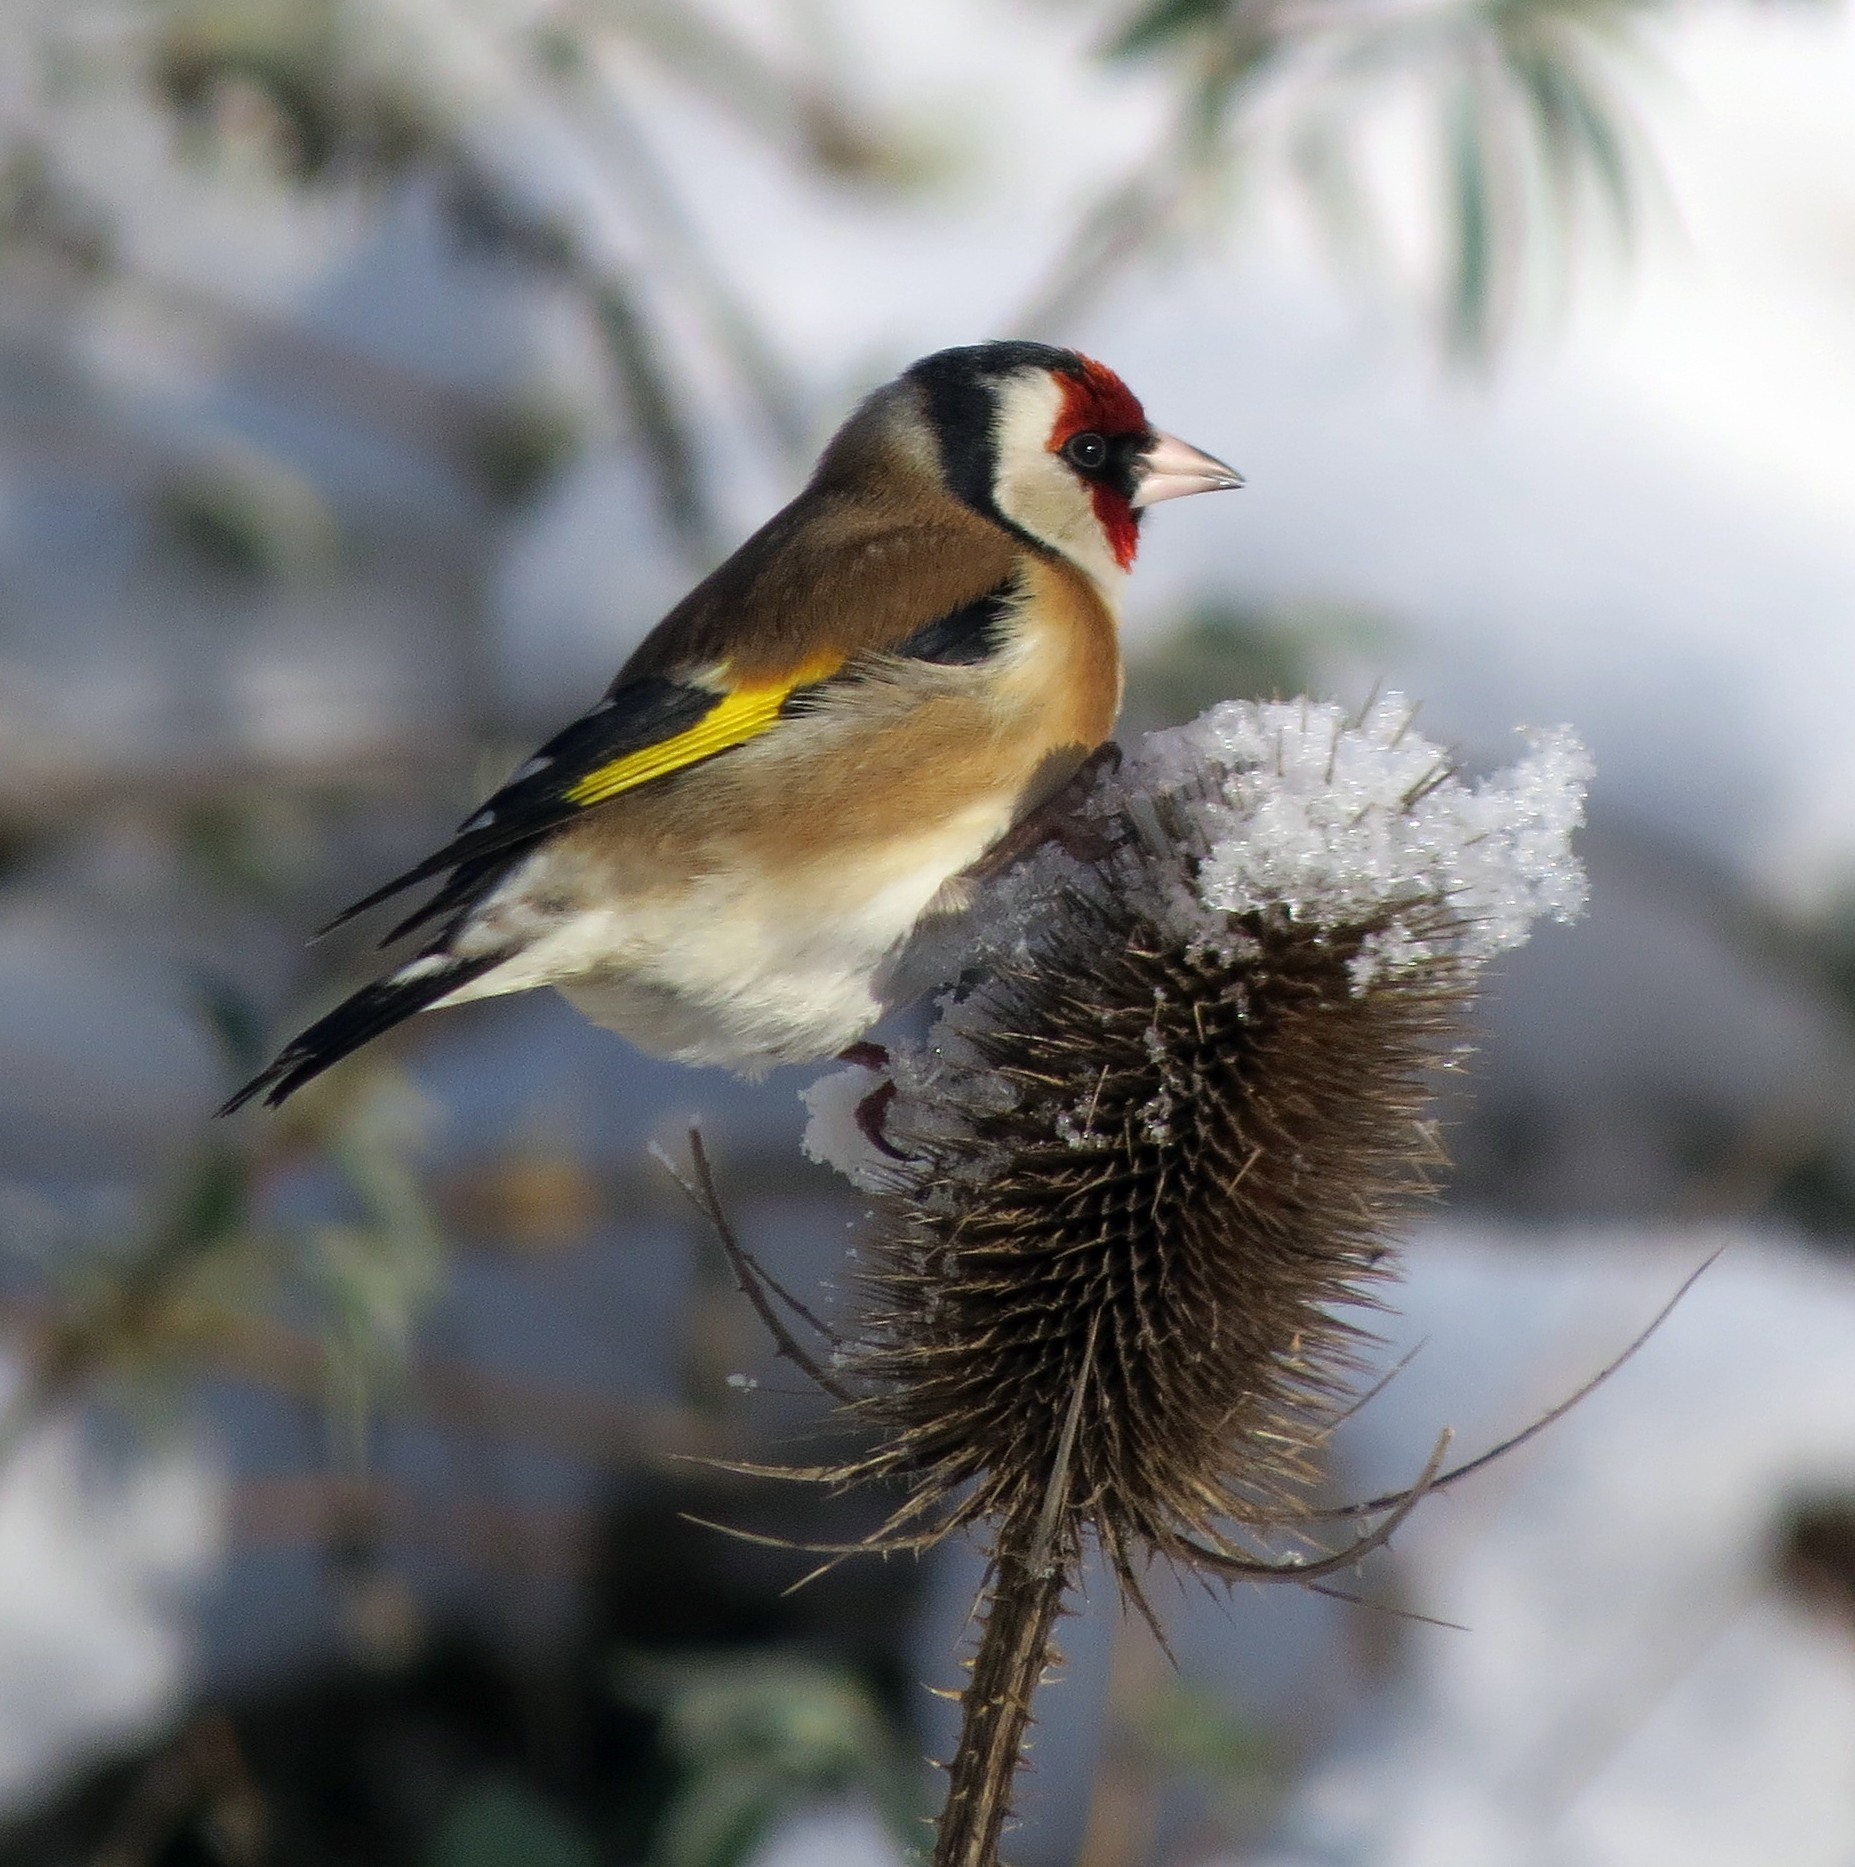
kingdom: Animalia
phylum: Chordata
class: Aves
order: Passeriformes
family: Fringillidae
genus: Carduelis
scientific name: Carduelis carduelis
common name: European goldfinch
